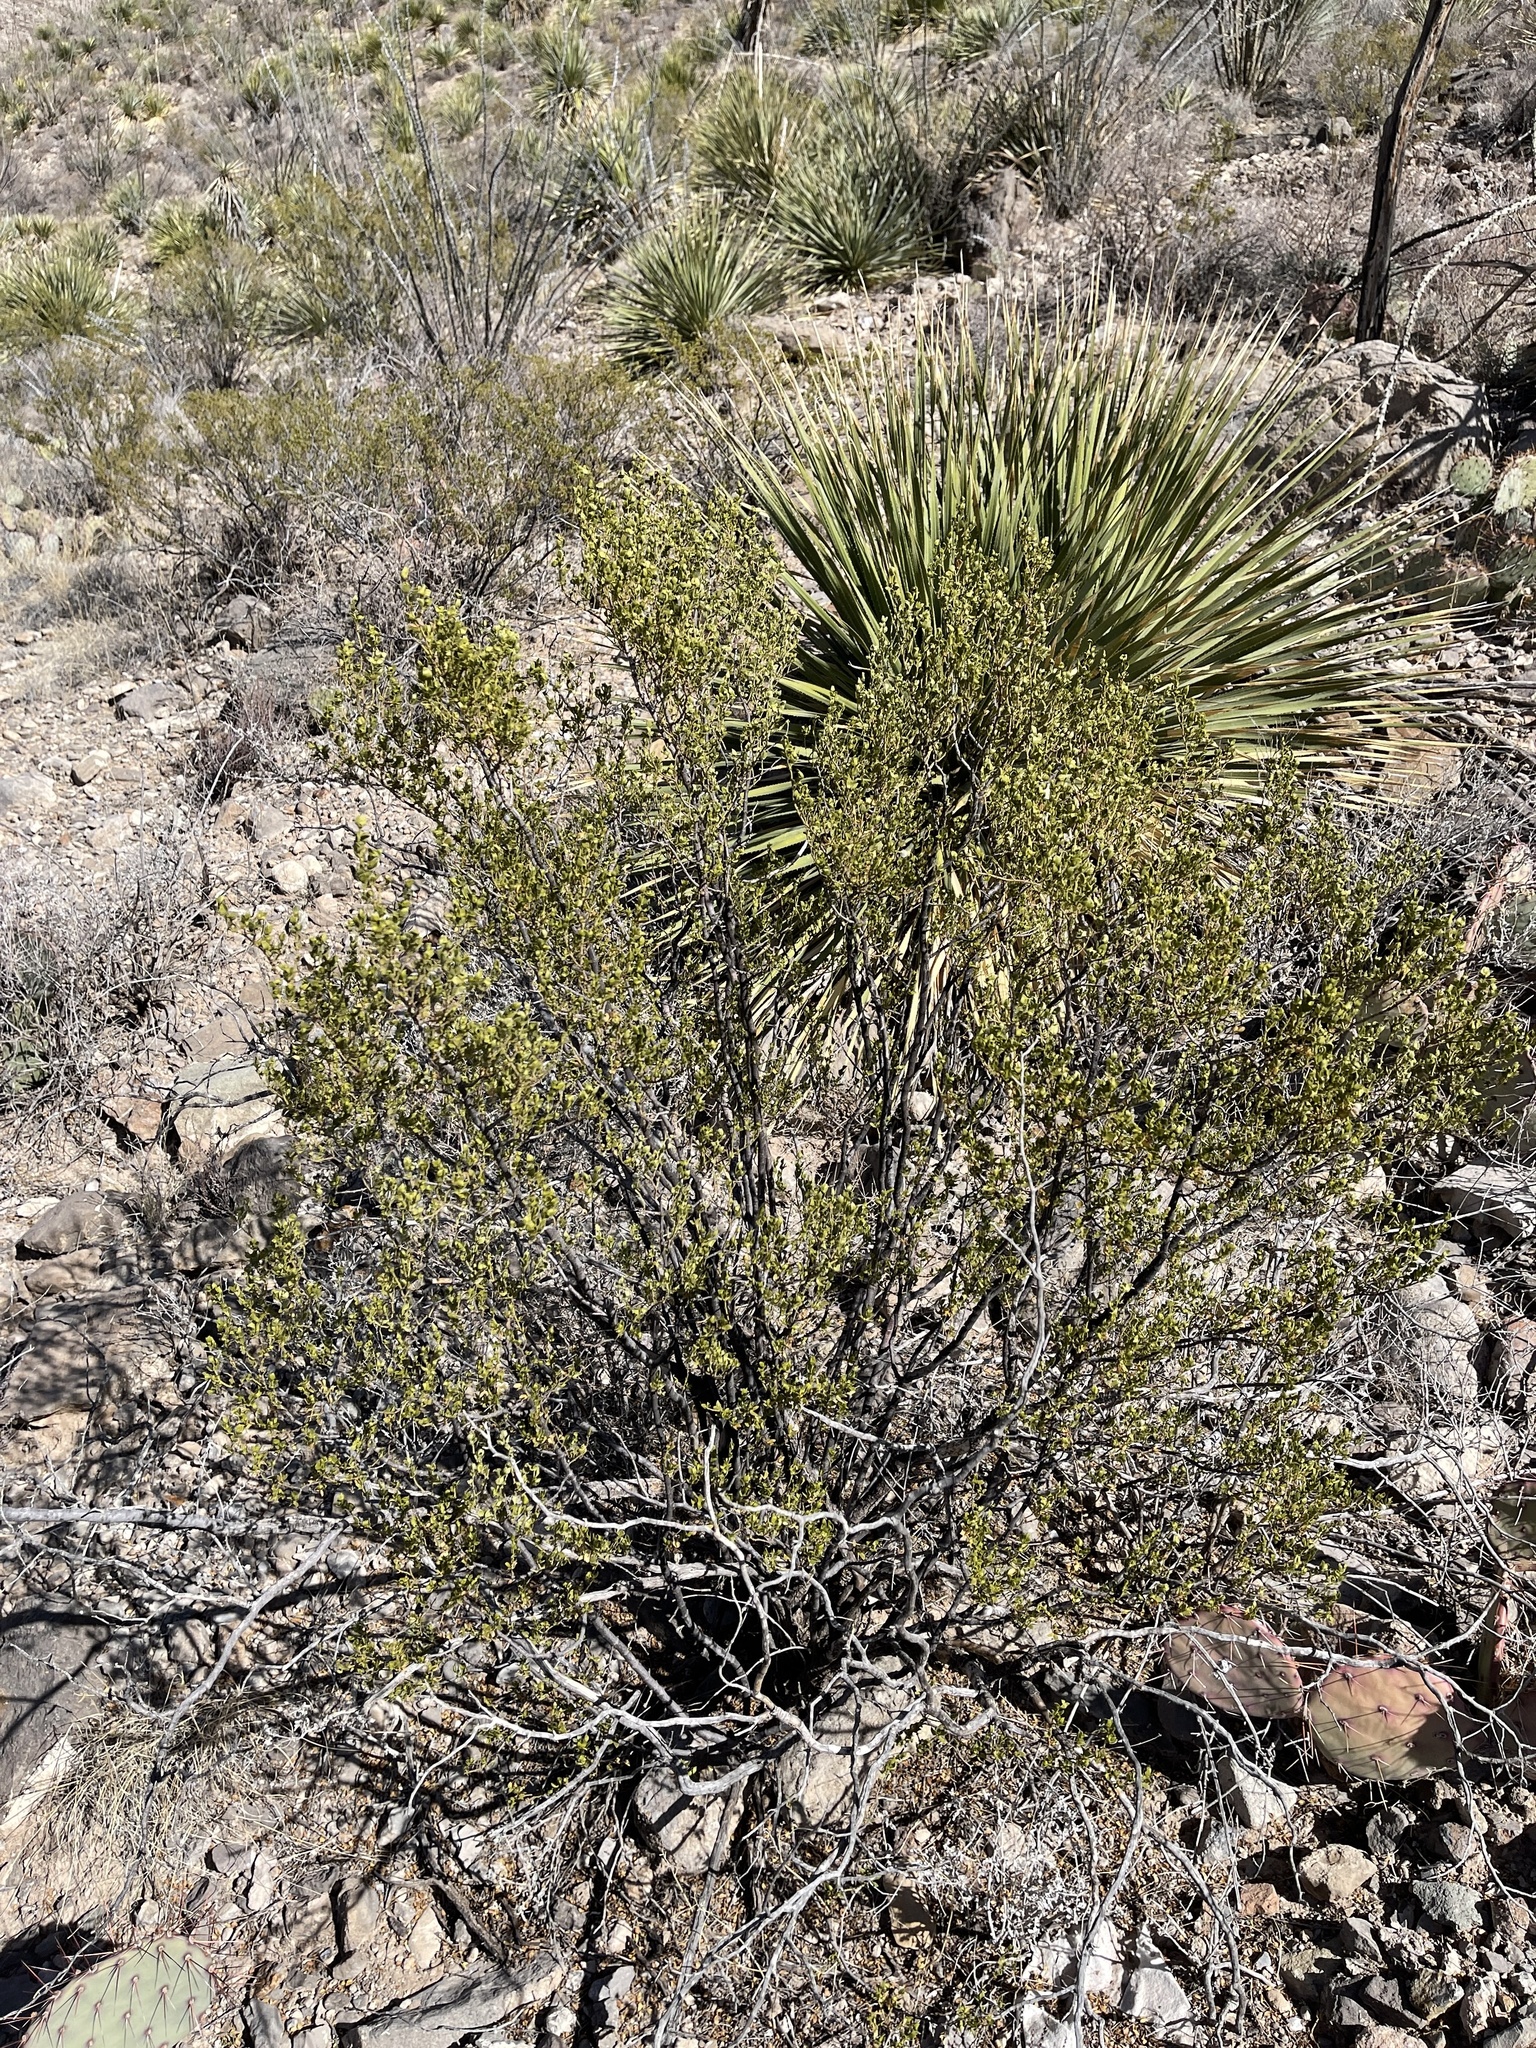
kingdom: Plantae
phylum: Tracheophyta
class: Magnoliopsida
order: Zygophyllales
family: Zygophyllaceae
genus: Larrea
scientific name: Larrea tridentata
